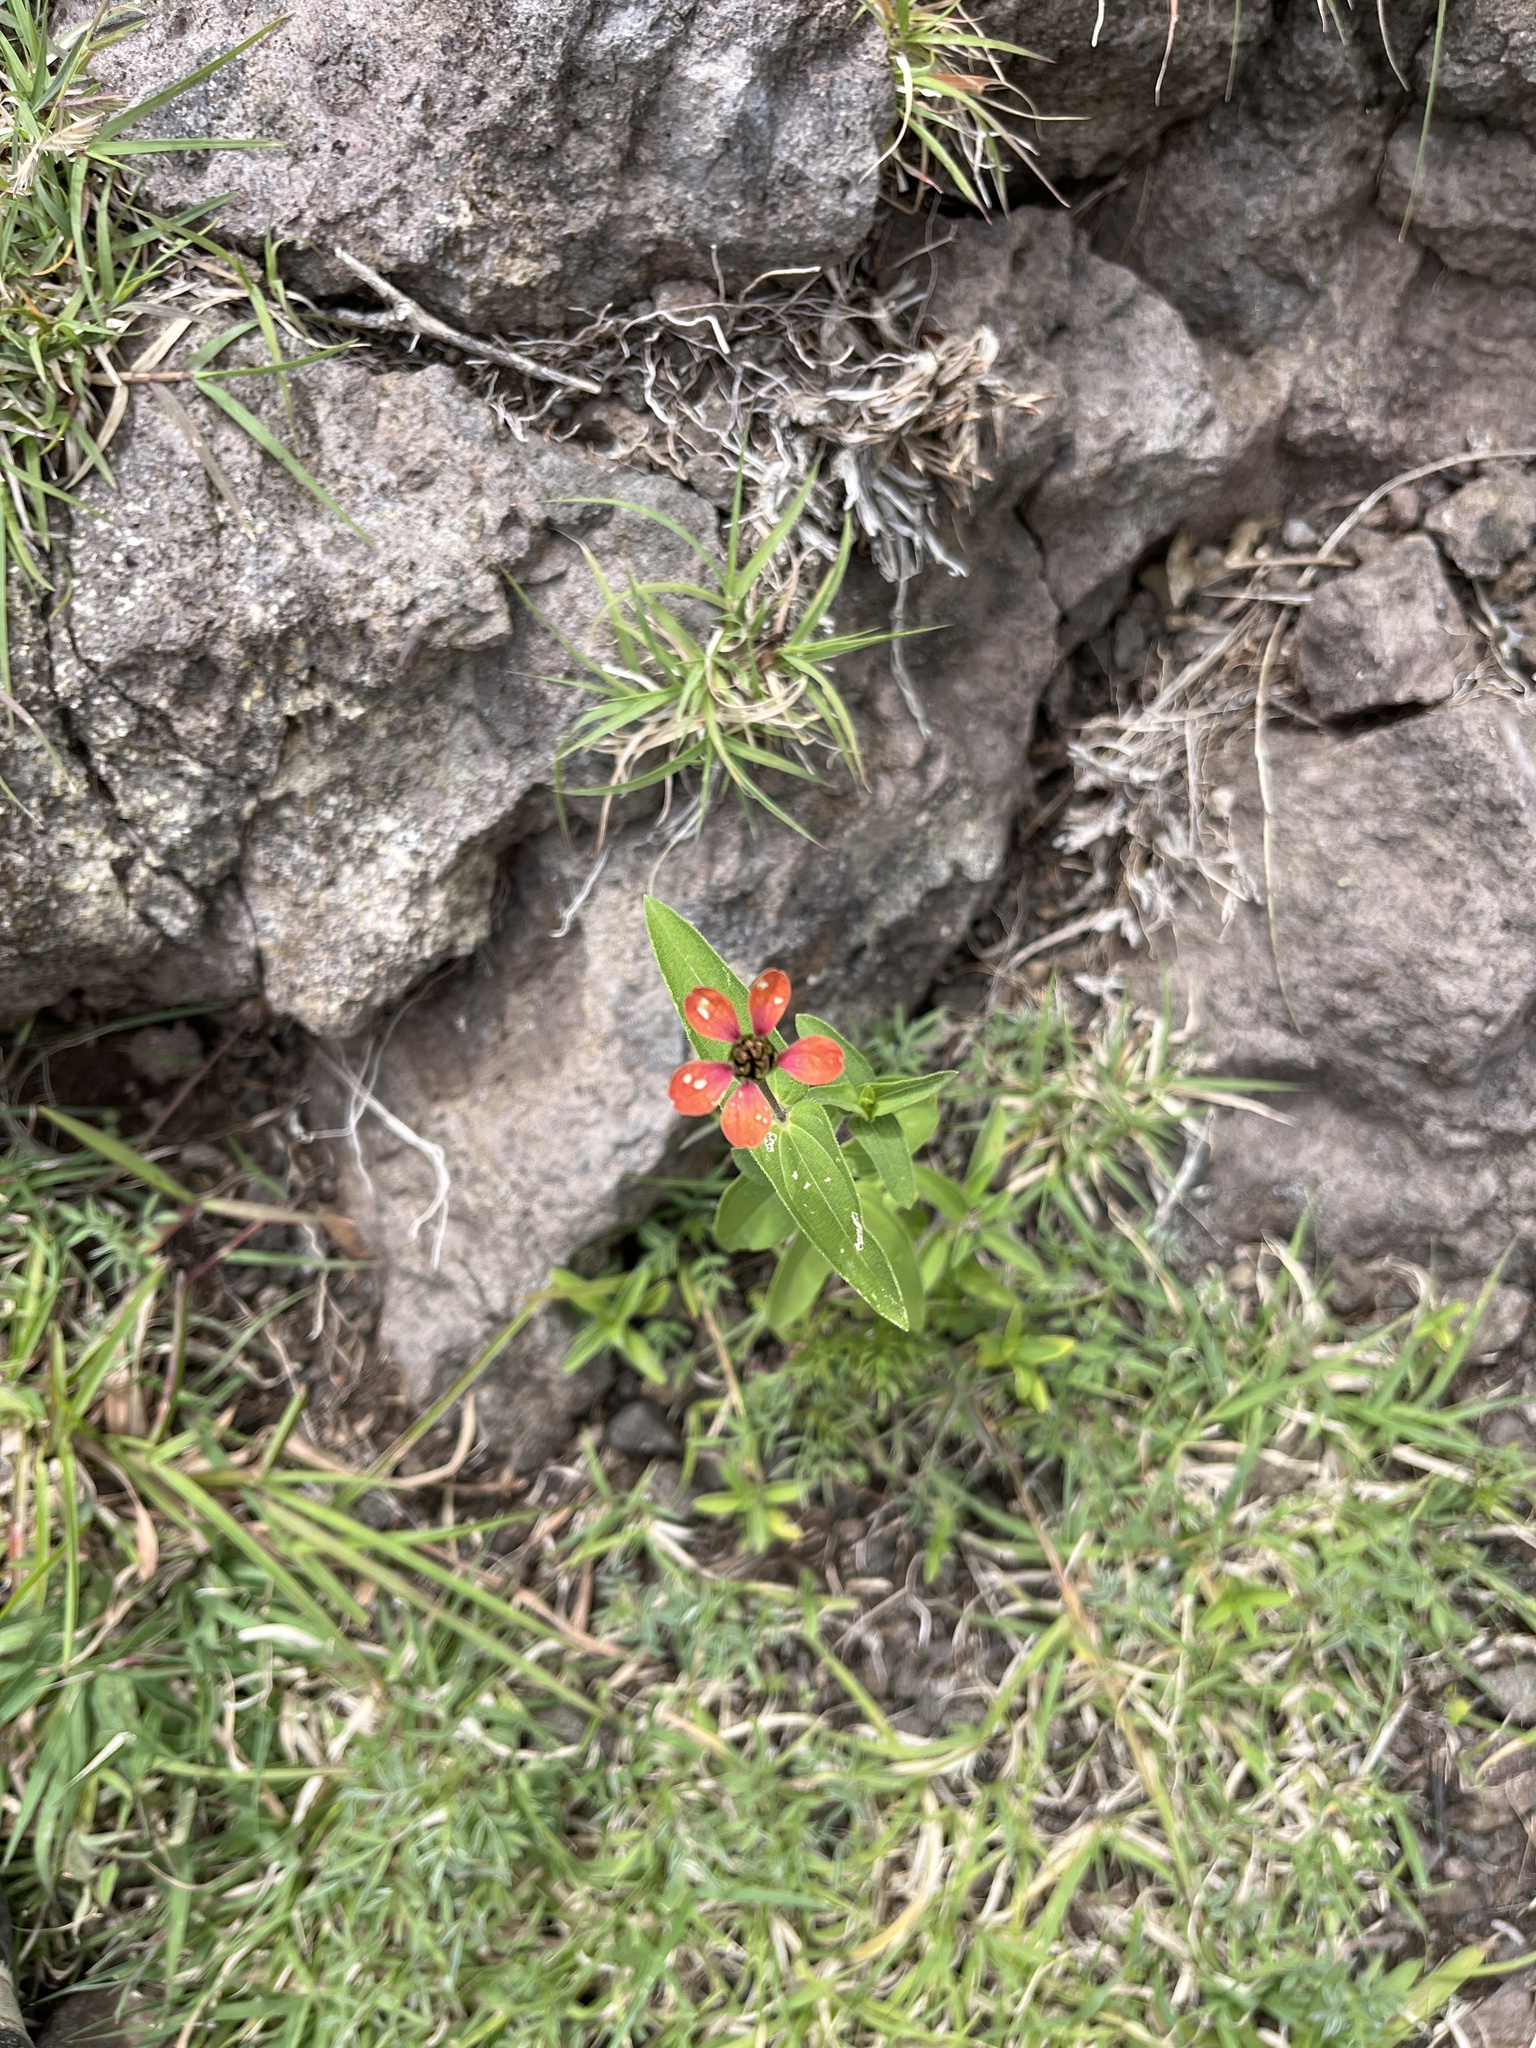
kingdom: Plantae
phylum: Tracheophyta
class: Magnoliopsida
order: Asterales
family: Asteraceae
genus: Zinnia
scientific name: Zinnia peruviana
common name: Peruvian zinnia
